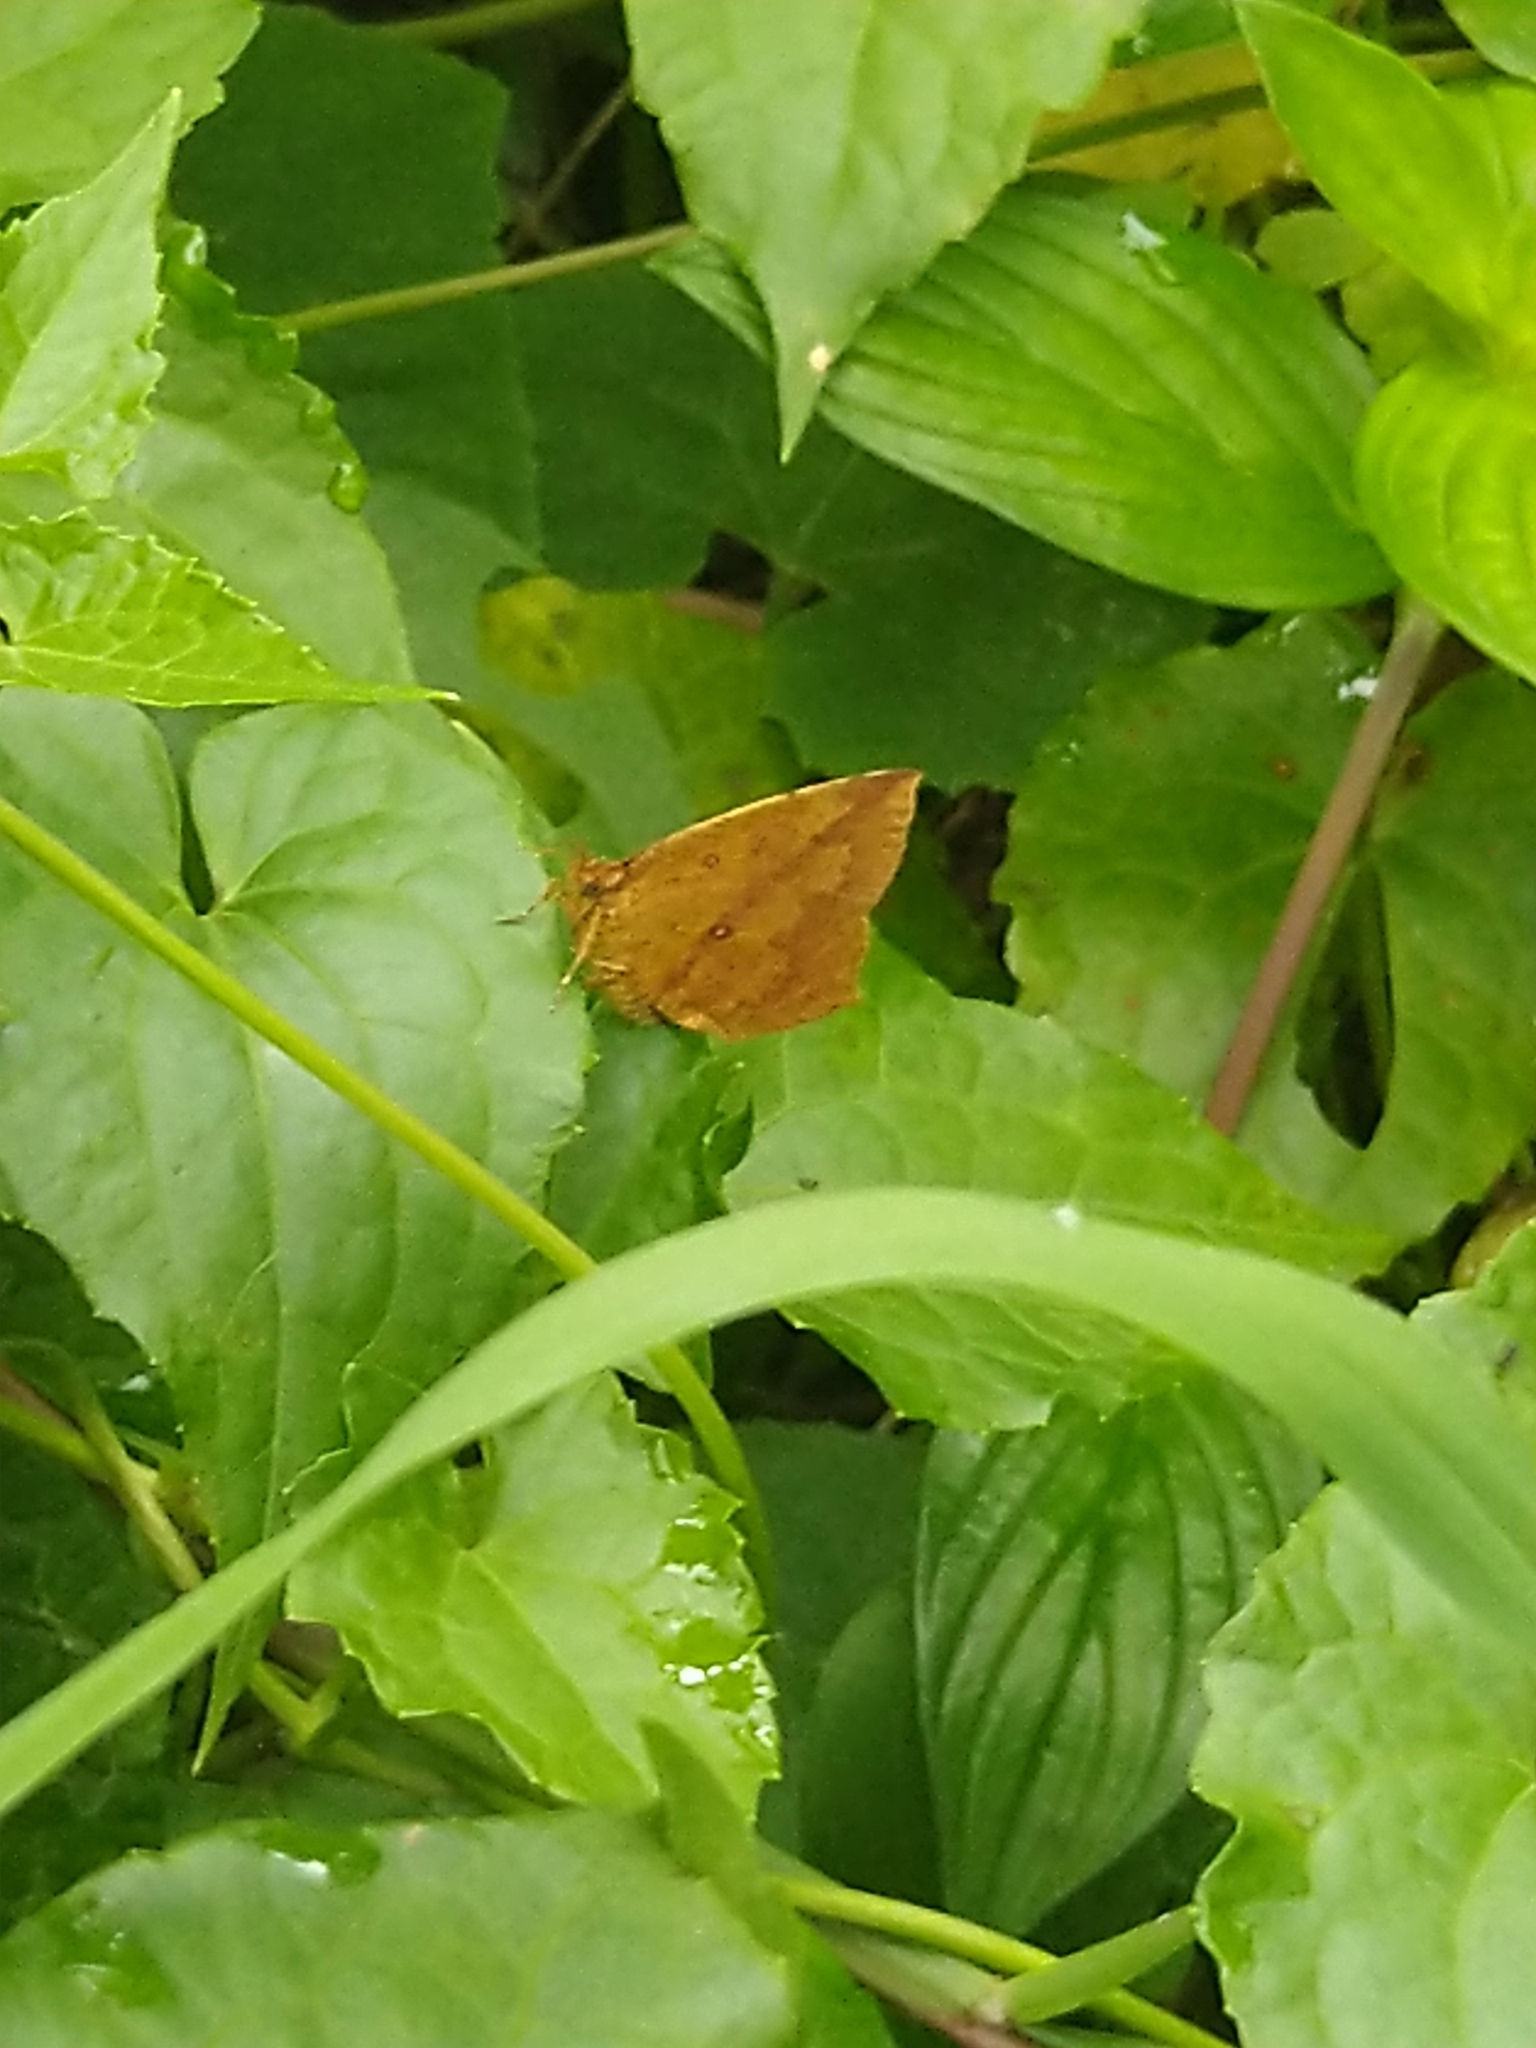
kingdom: Animalia
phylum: Arthropoda
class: Insecta
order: Lepidoptera
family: Callidulidae
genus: Tetragonus
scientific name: Tetragonus catamitus
